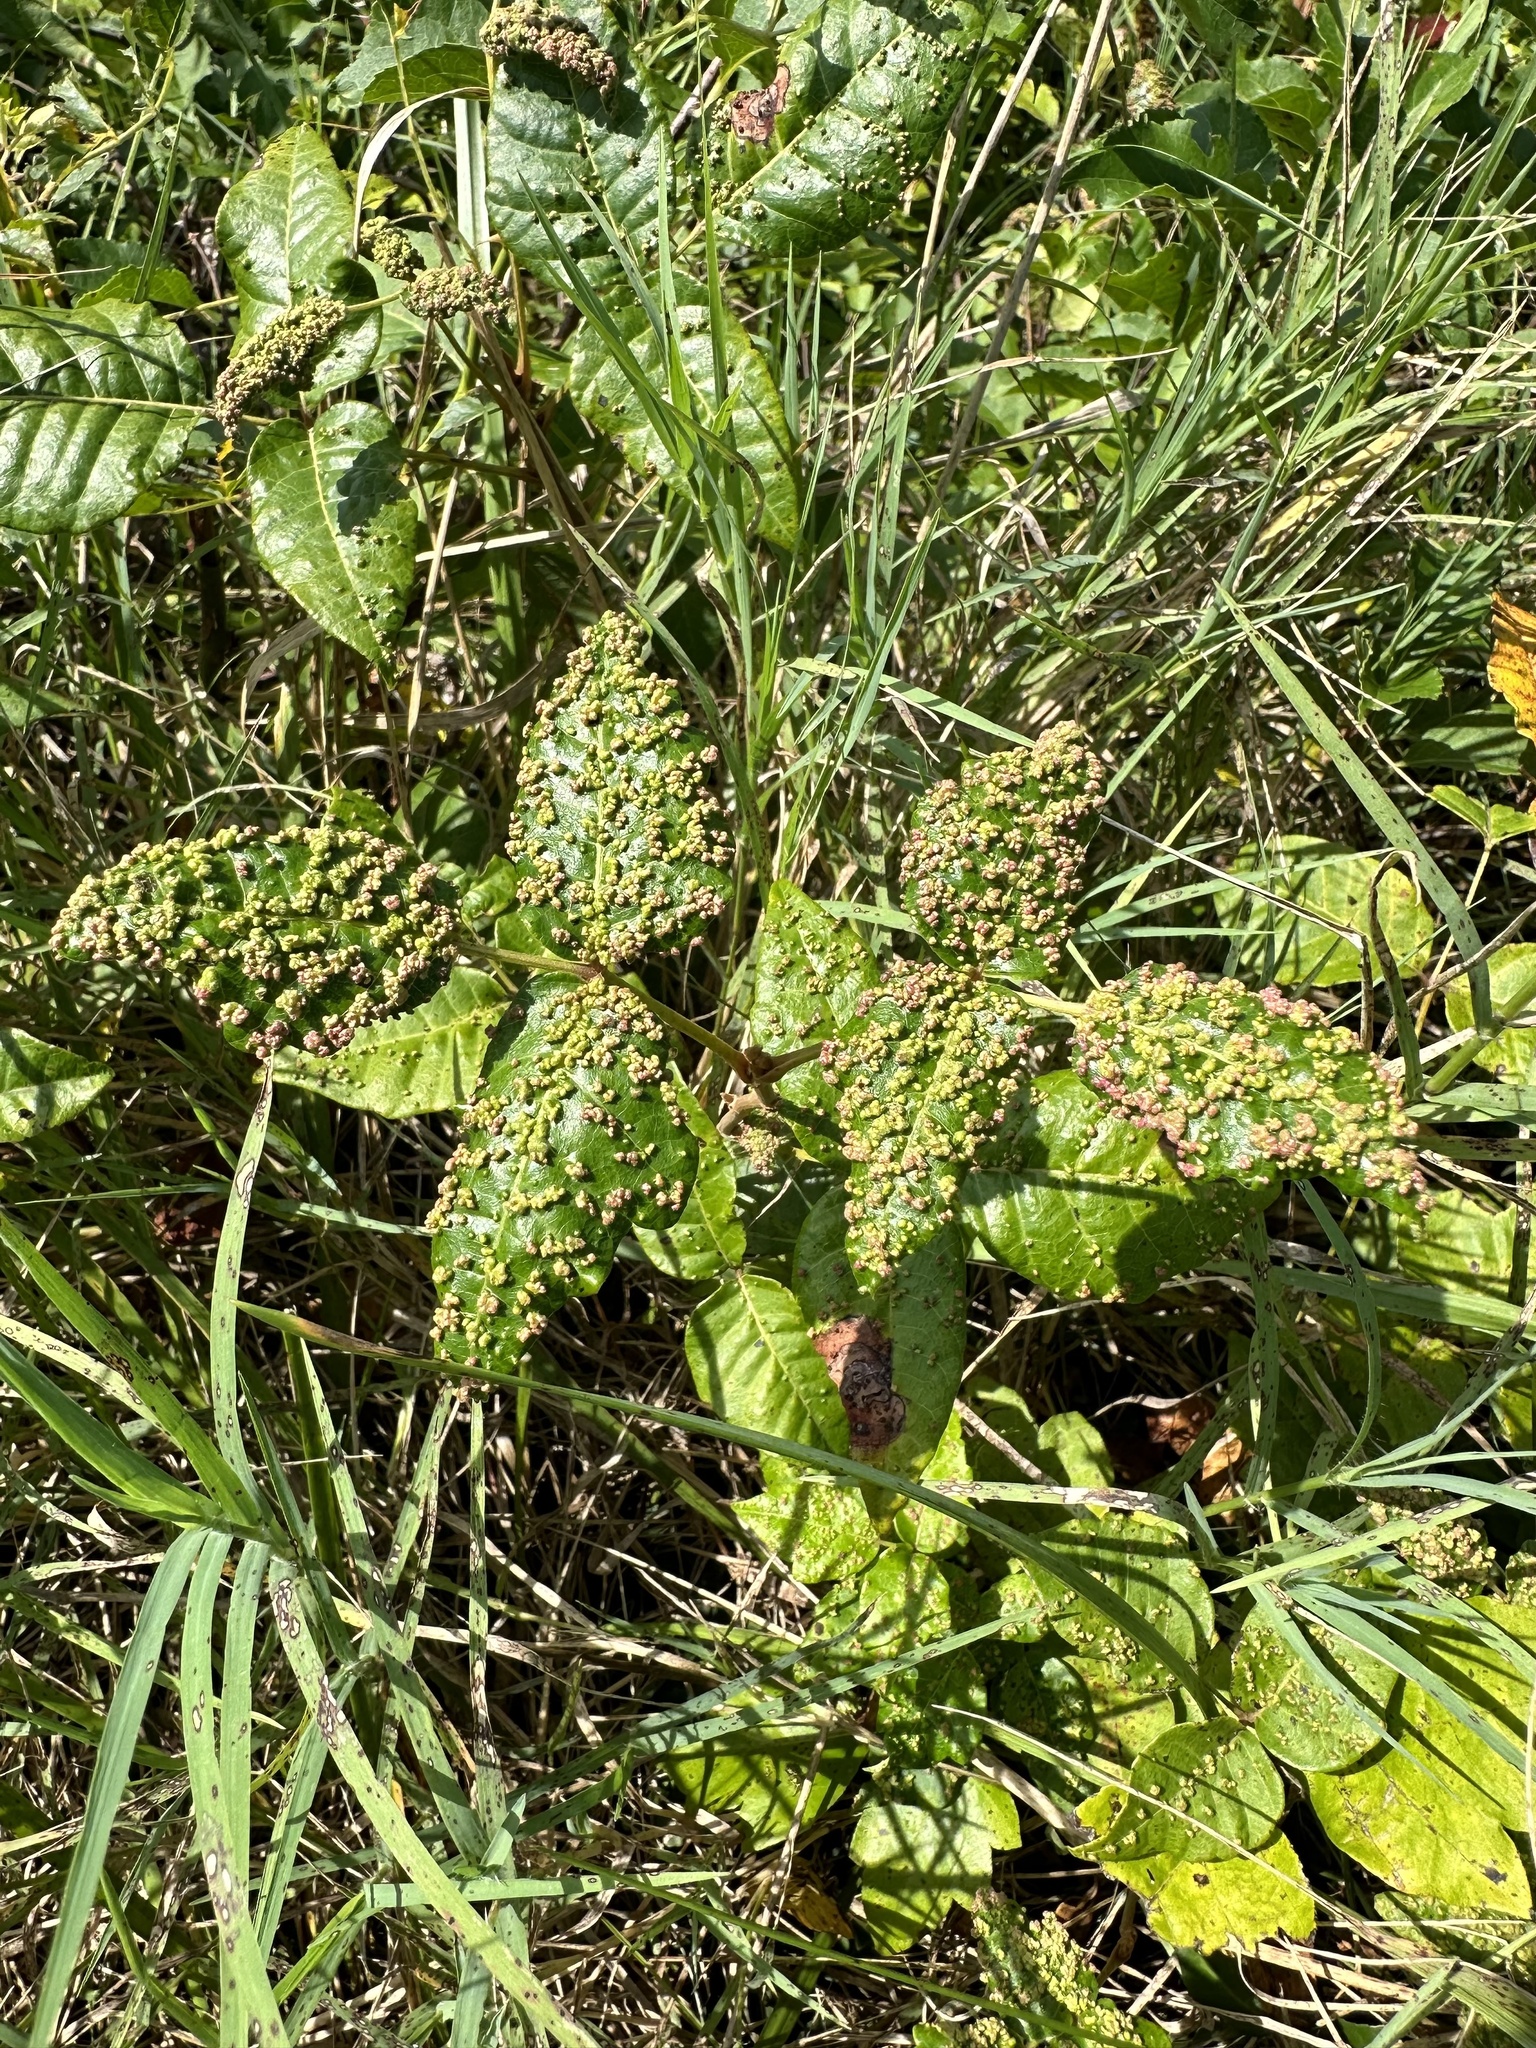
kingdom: Animalia
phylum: Arthropoda
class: Arachnida
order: Trombidiformes
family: Eriophyidae
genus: Aculops
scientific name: Aculops
